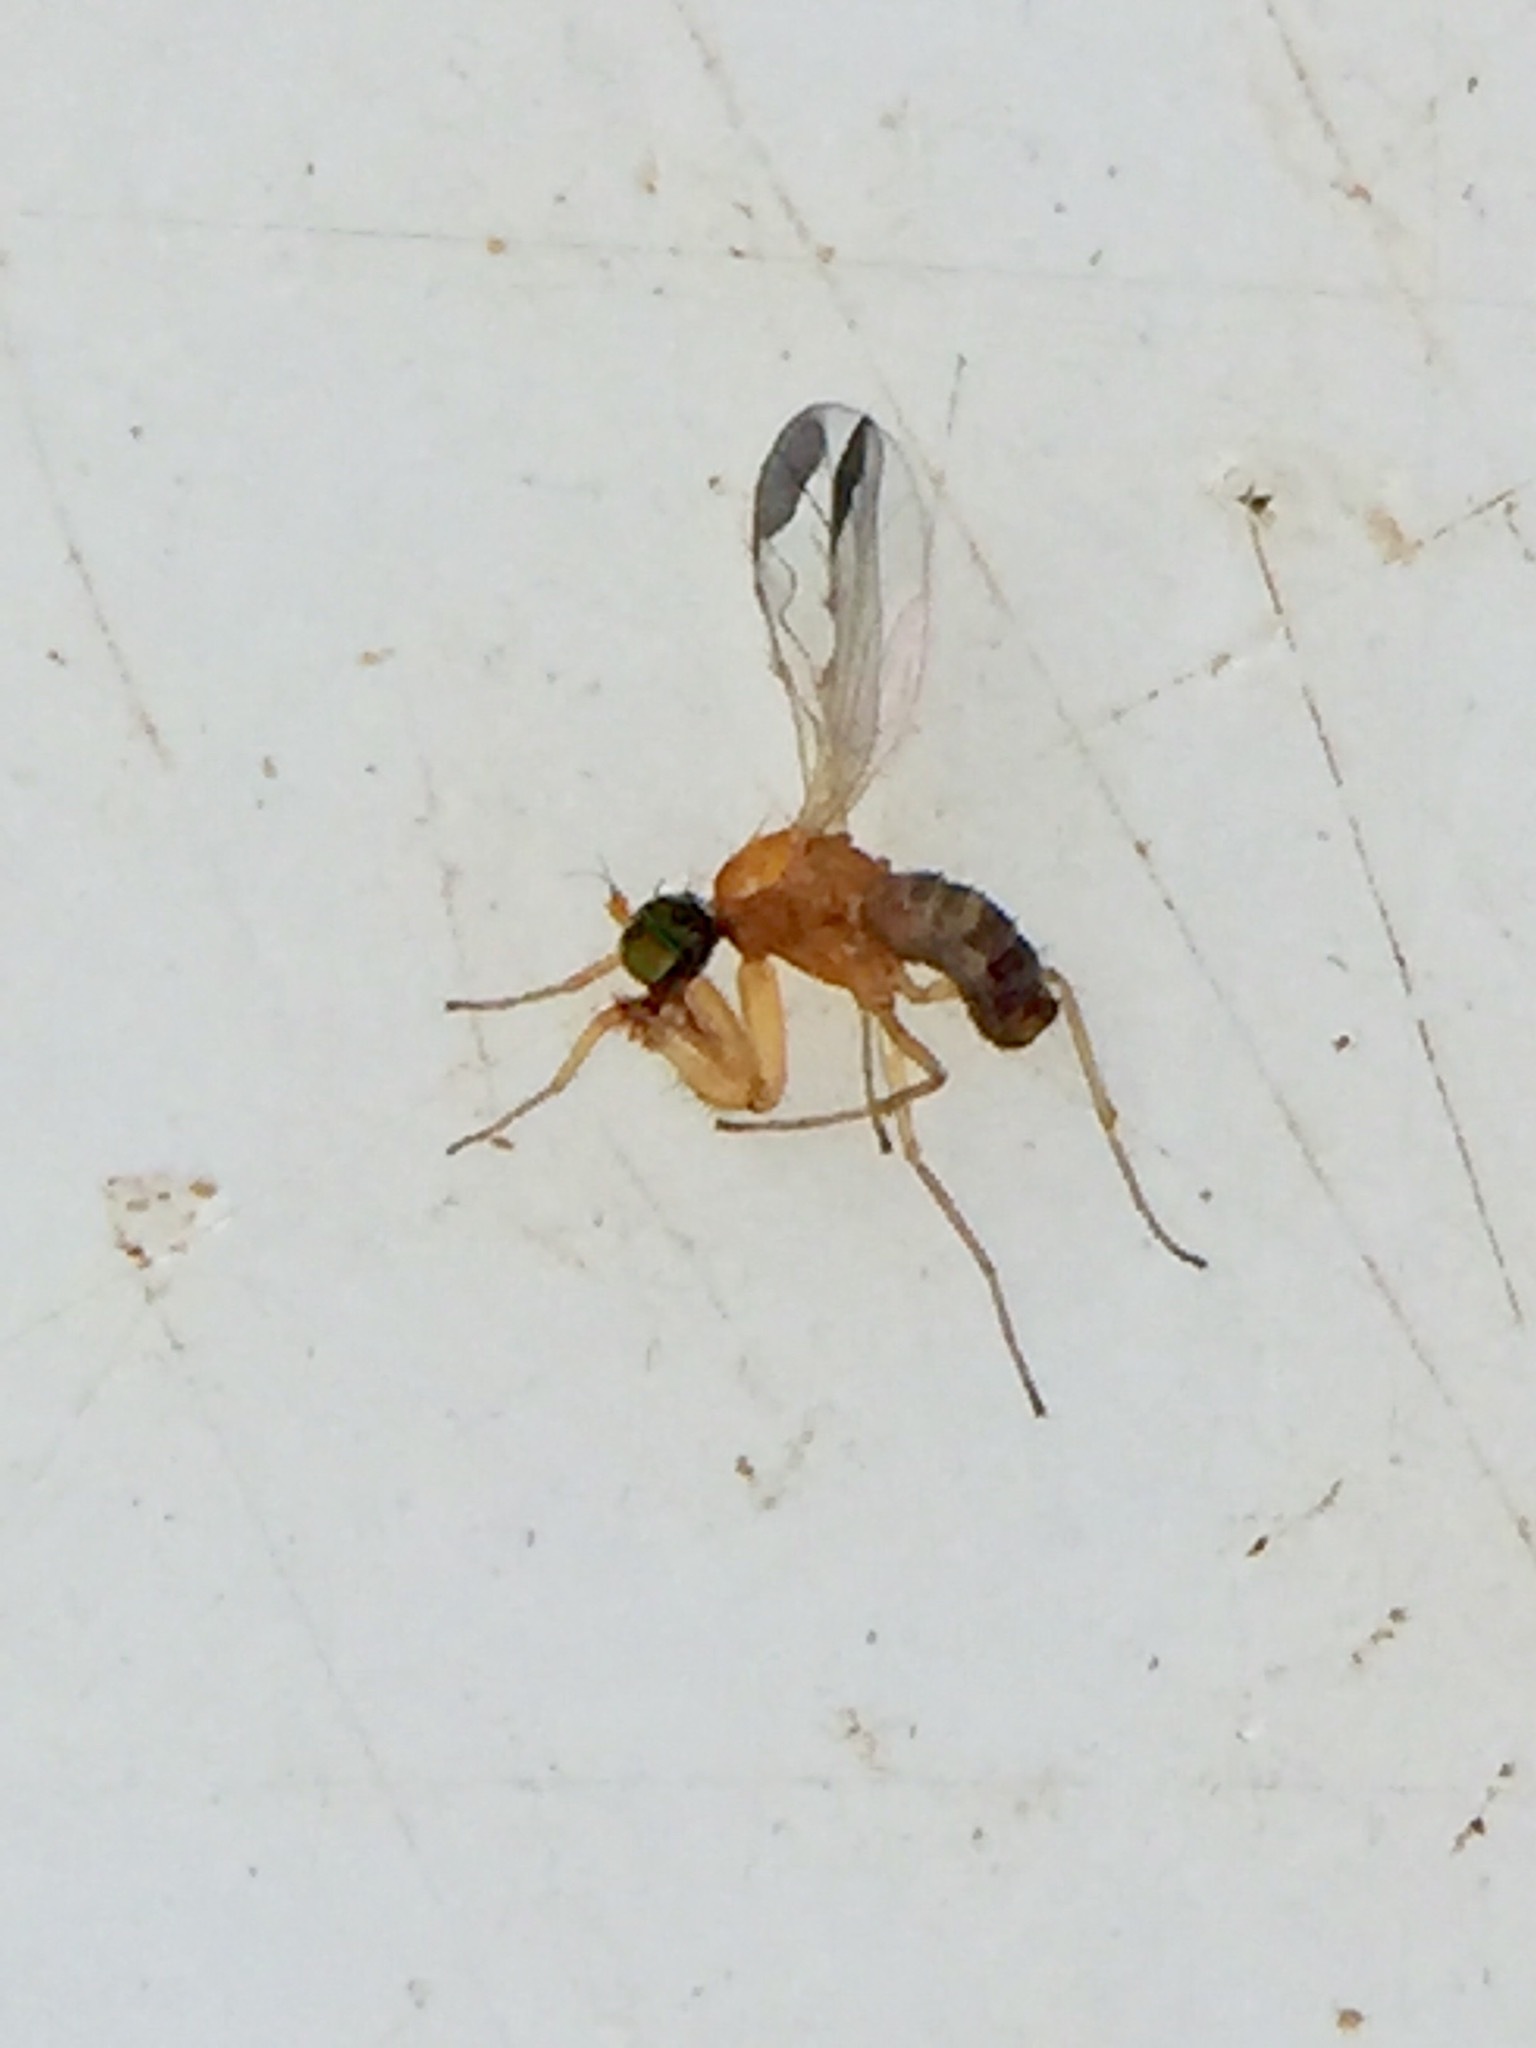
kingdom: Animalia
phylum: Arthropoda
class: Insecta
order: Diptera
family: Empididae
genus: Phyllodromia
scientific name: Phyllodromia flexura
